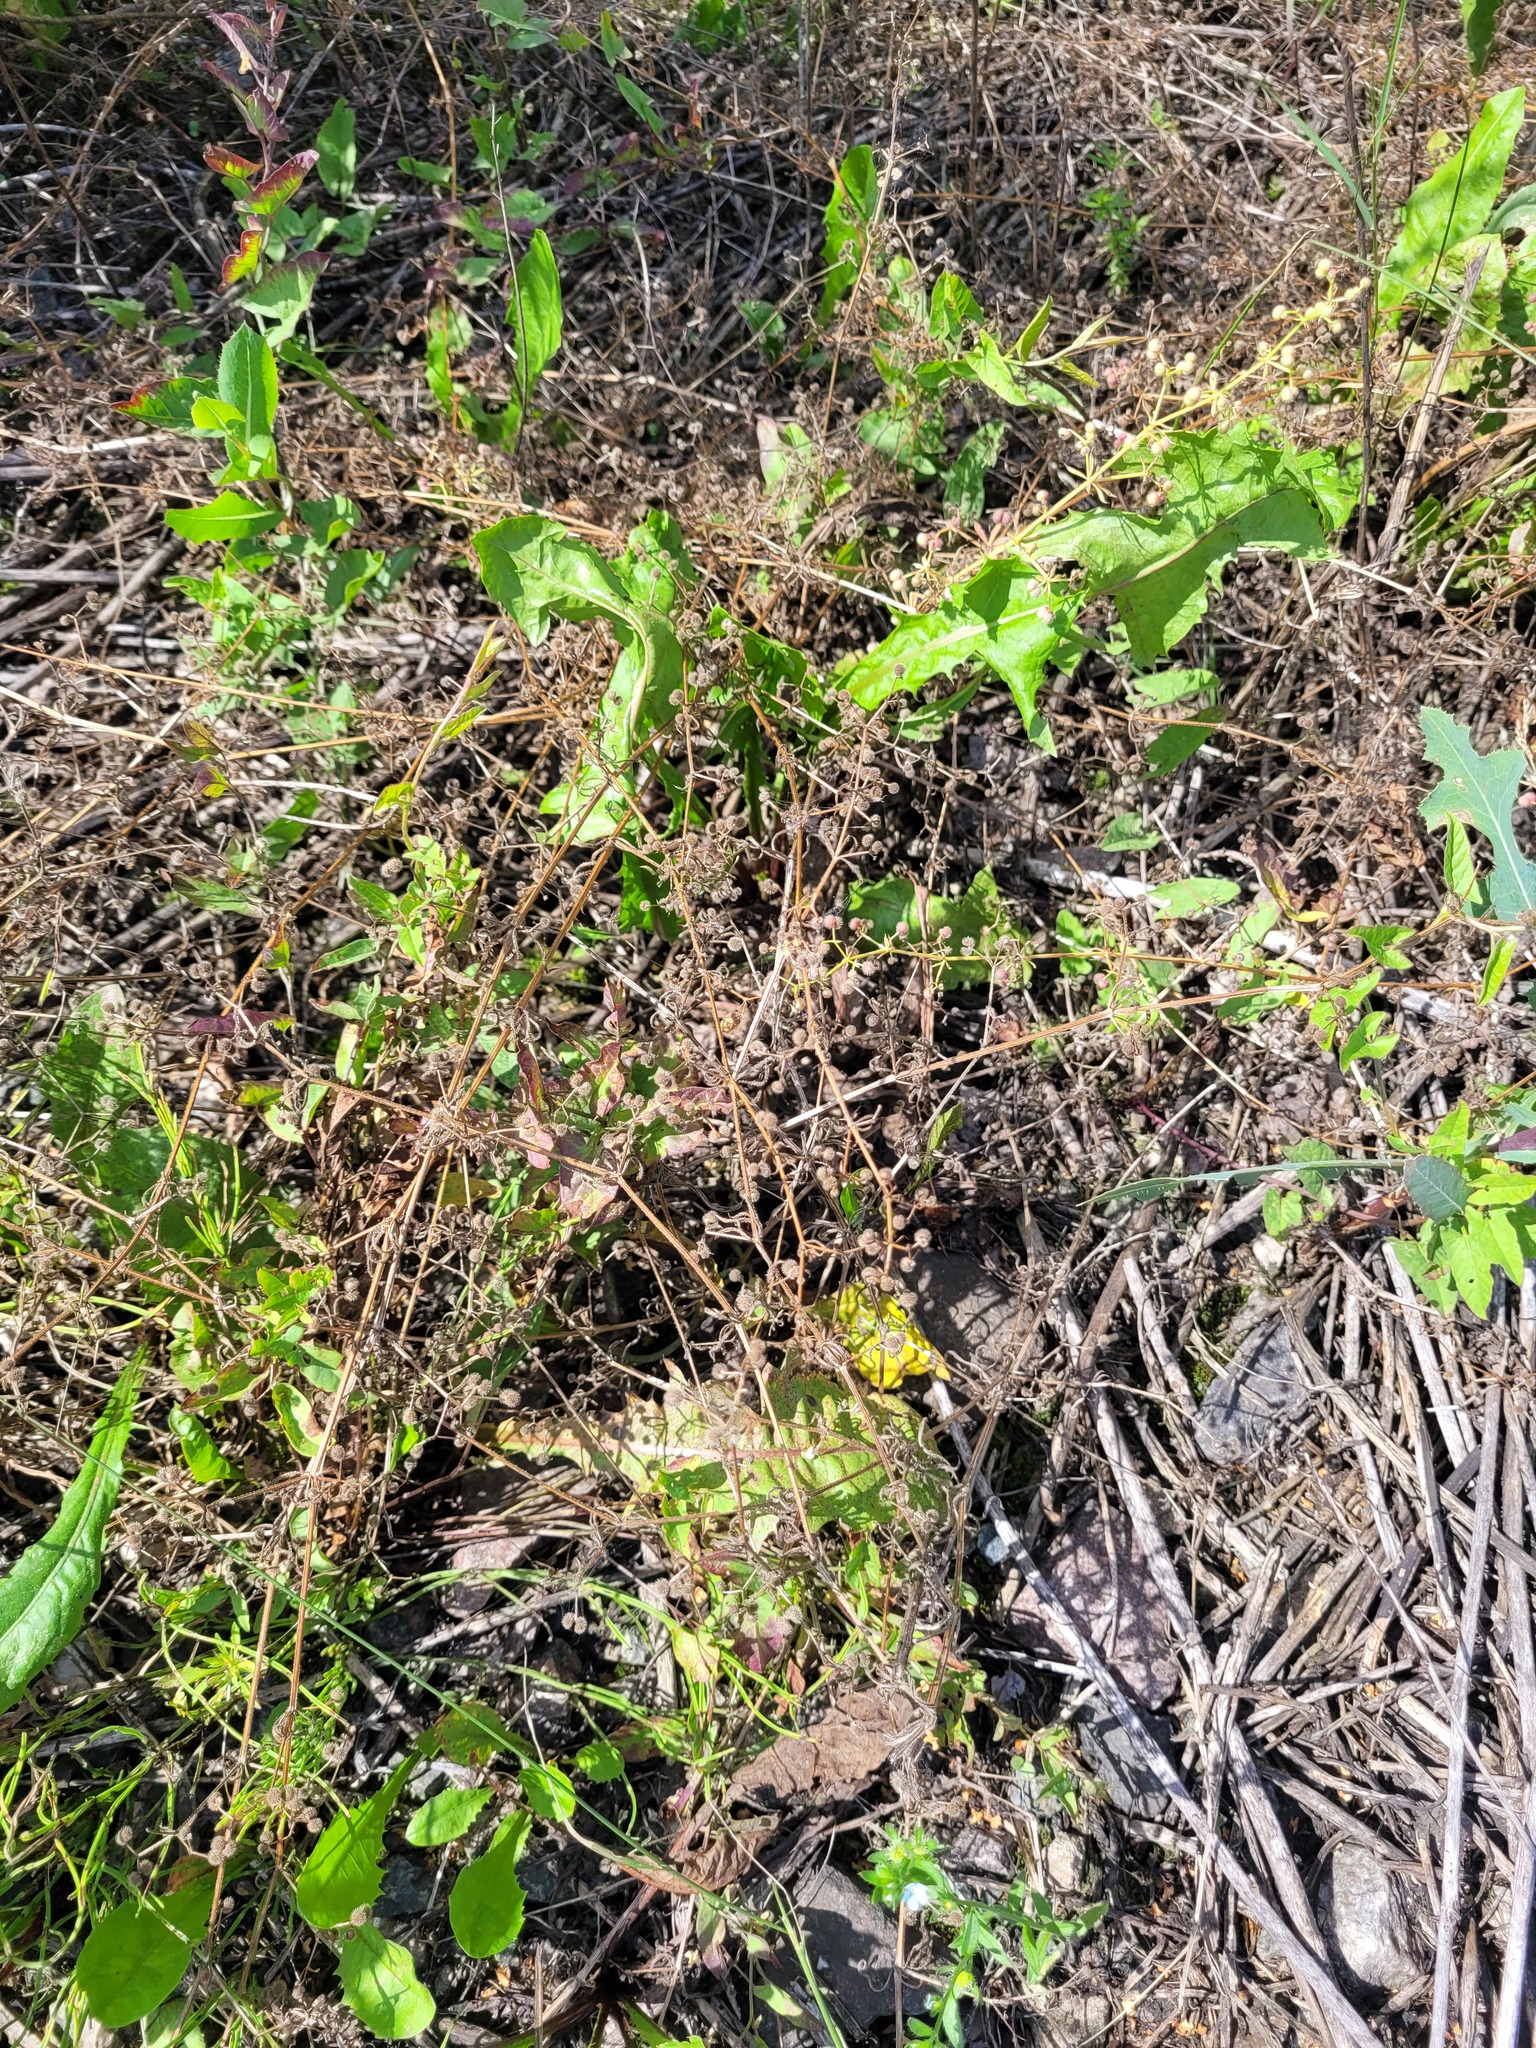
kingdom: Plantae
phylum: Tracheophyta
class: Magnoliopsida
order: Gentianales
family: Rubiaceae
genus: Galium
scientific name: Galium aparine
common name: Cleavers
